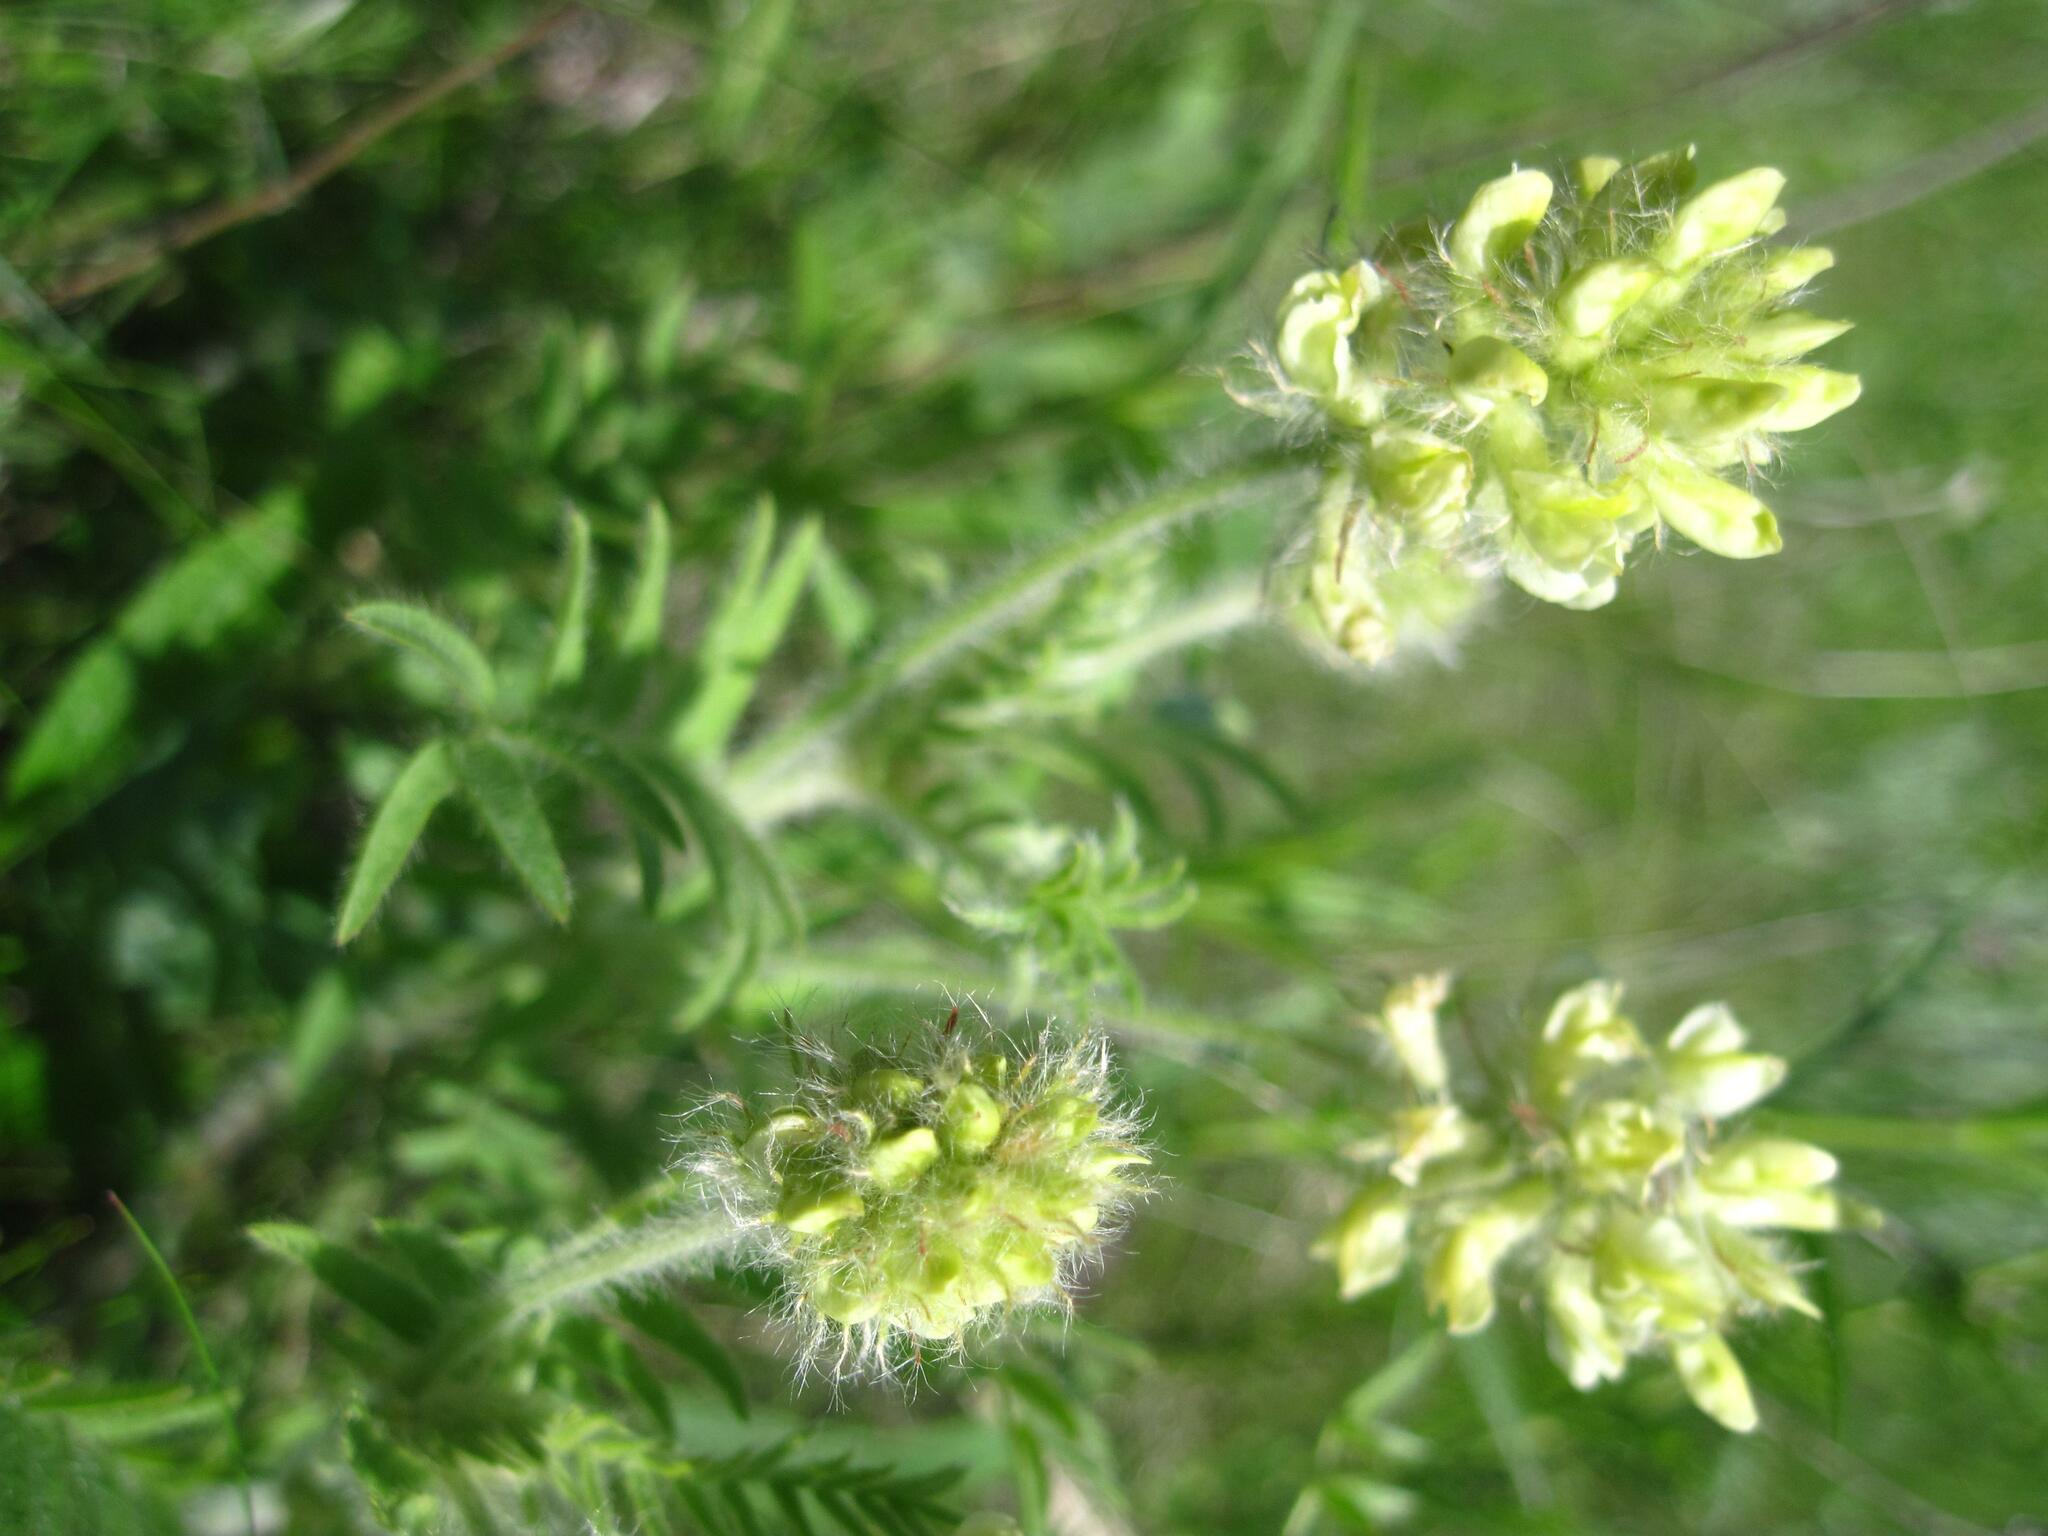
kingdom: Plantae
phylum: Tracheophyta
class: Magnoliopsida
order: Fabales
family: Fabaceae
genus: Oxytropis
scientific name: Oxytropis pilosa
